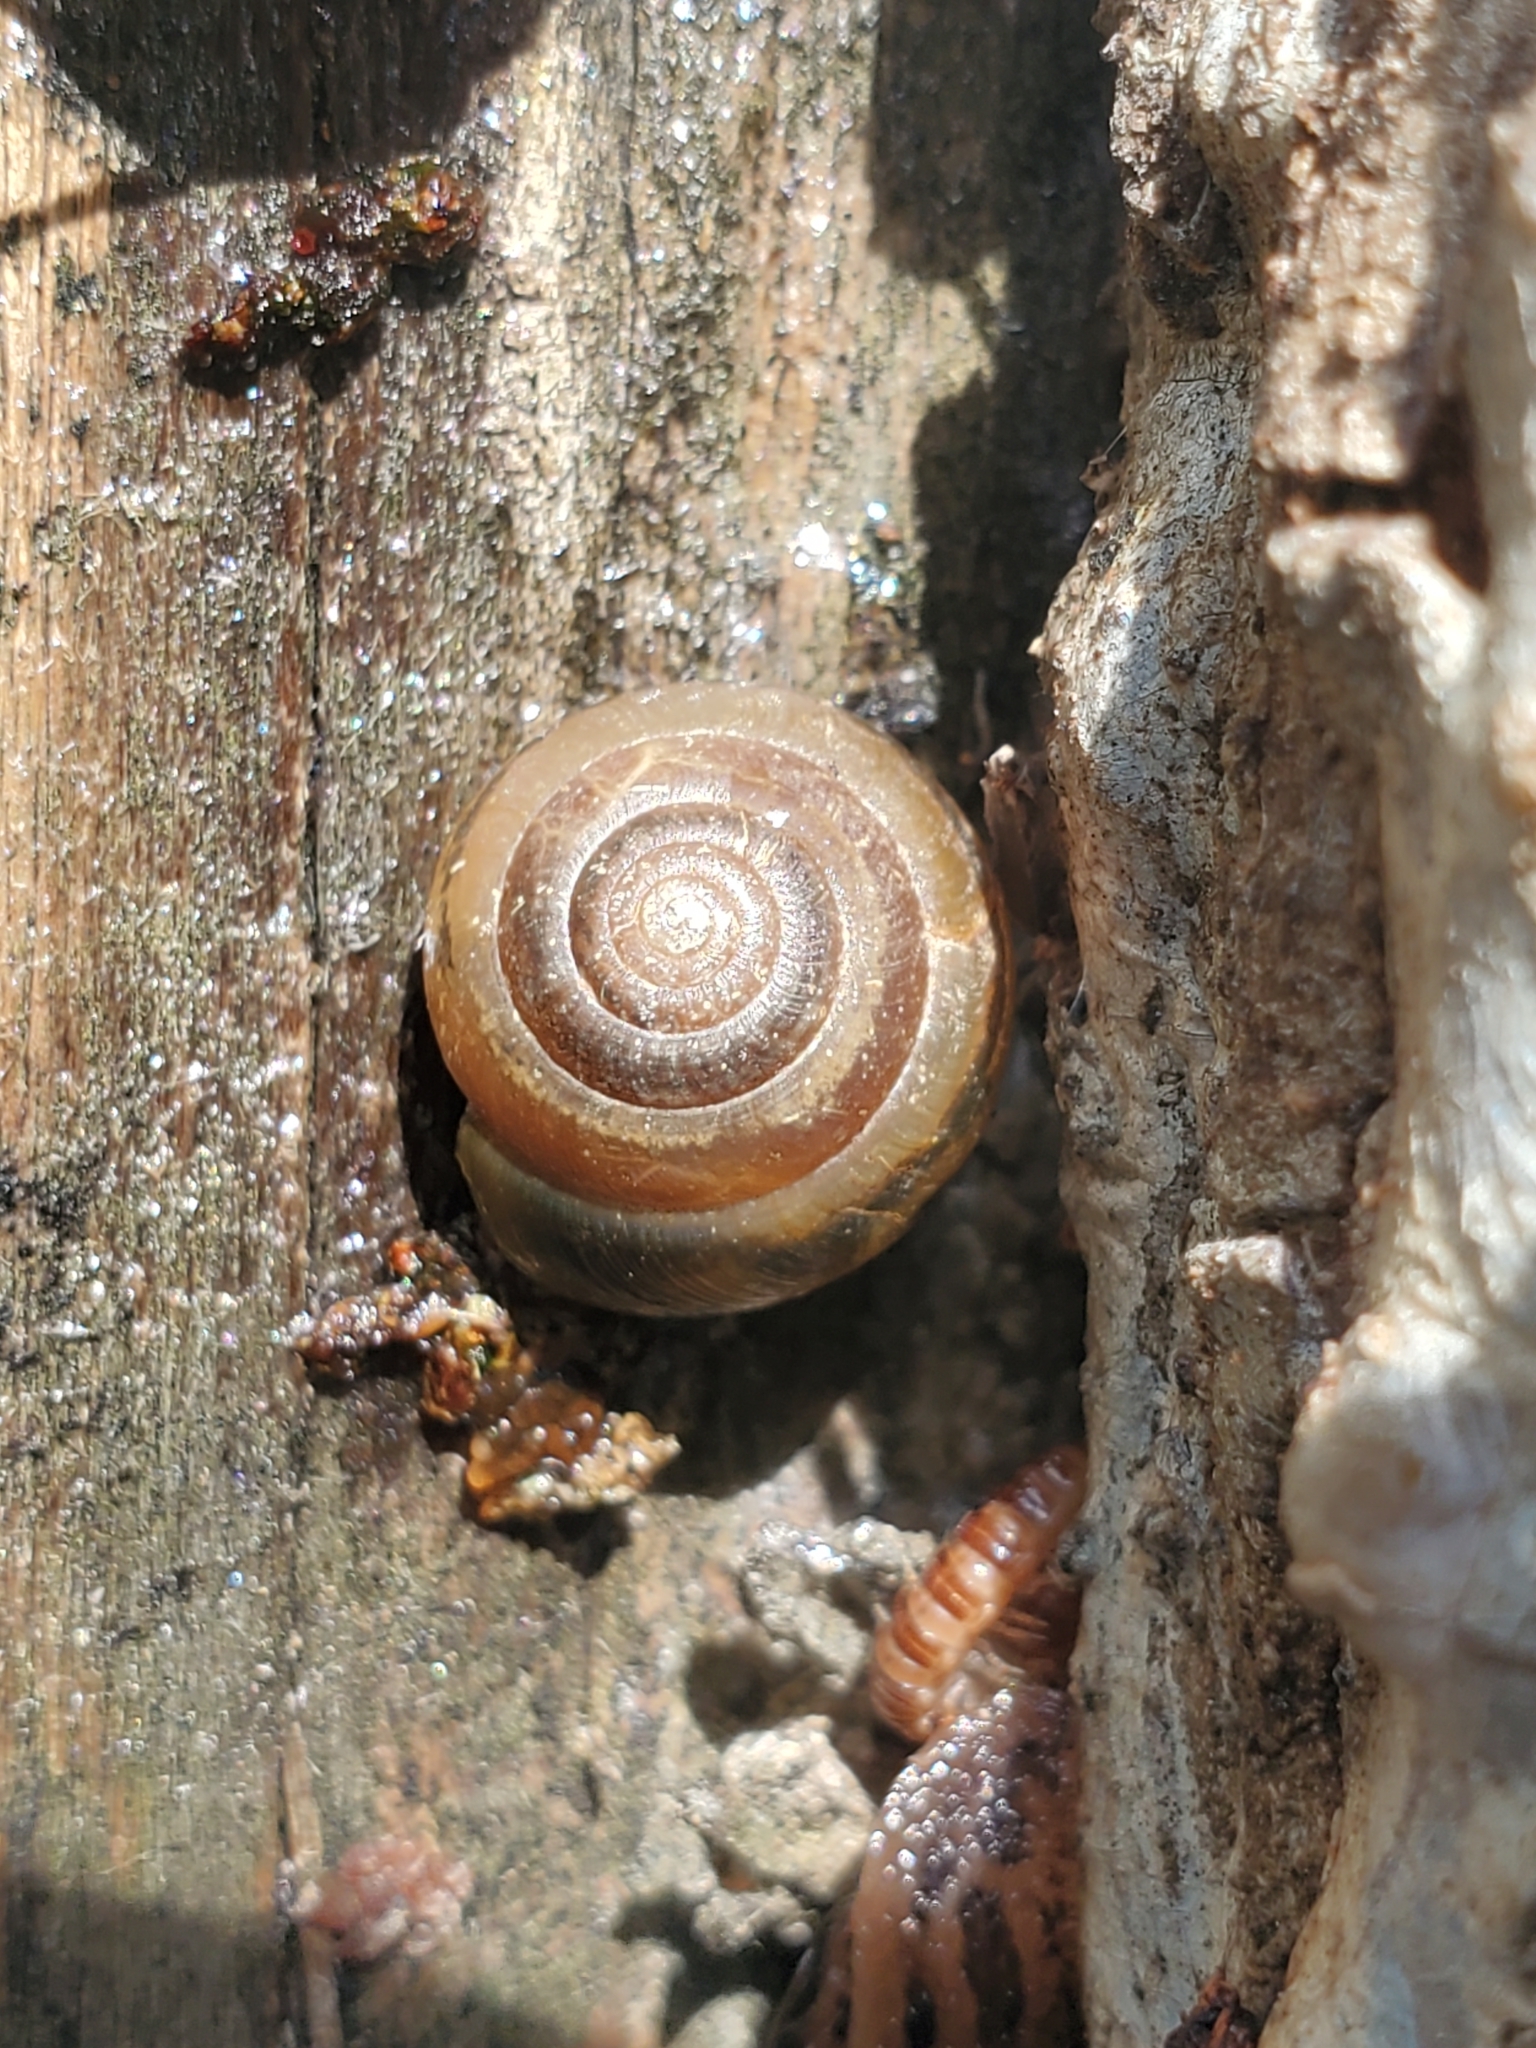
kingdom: Animalia
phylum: Mollusca
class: Gastropoda
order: Stylommatophora
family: Gastrodontidae
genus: Ventridens
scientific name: Ventridens ligera
